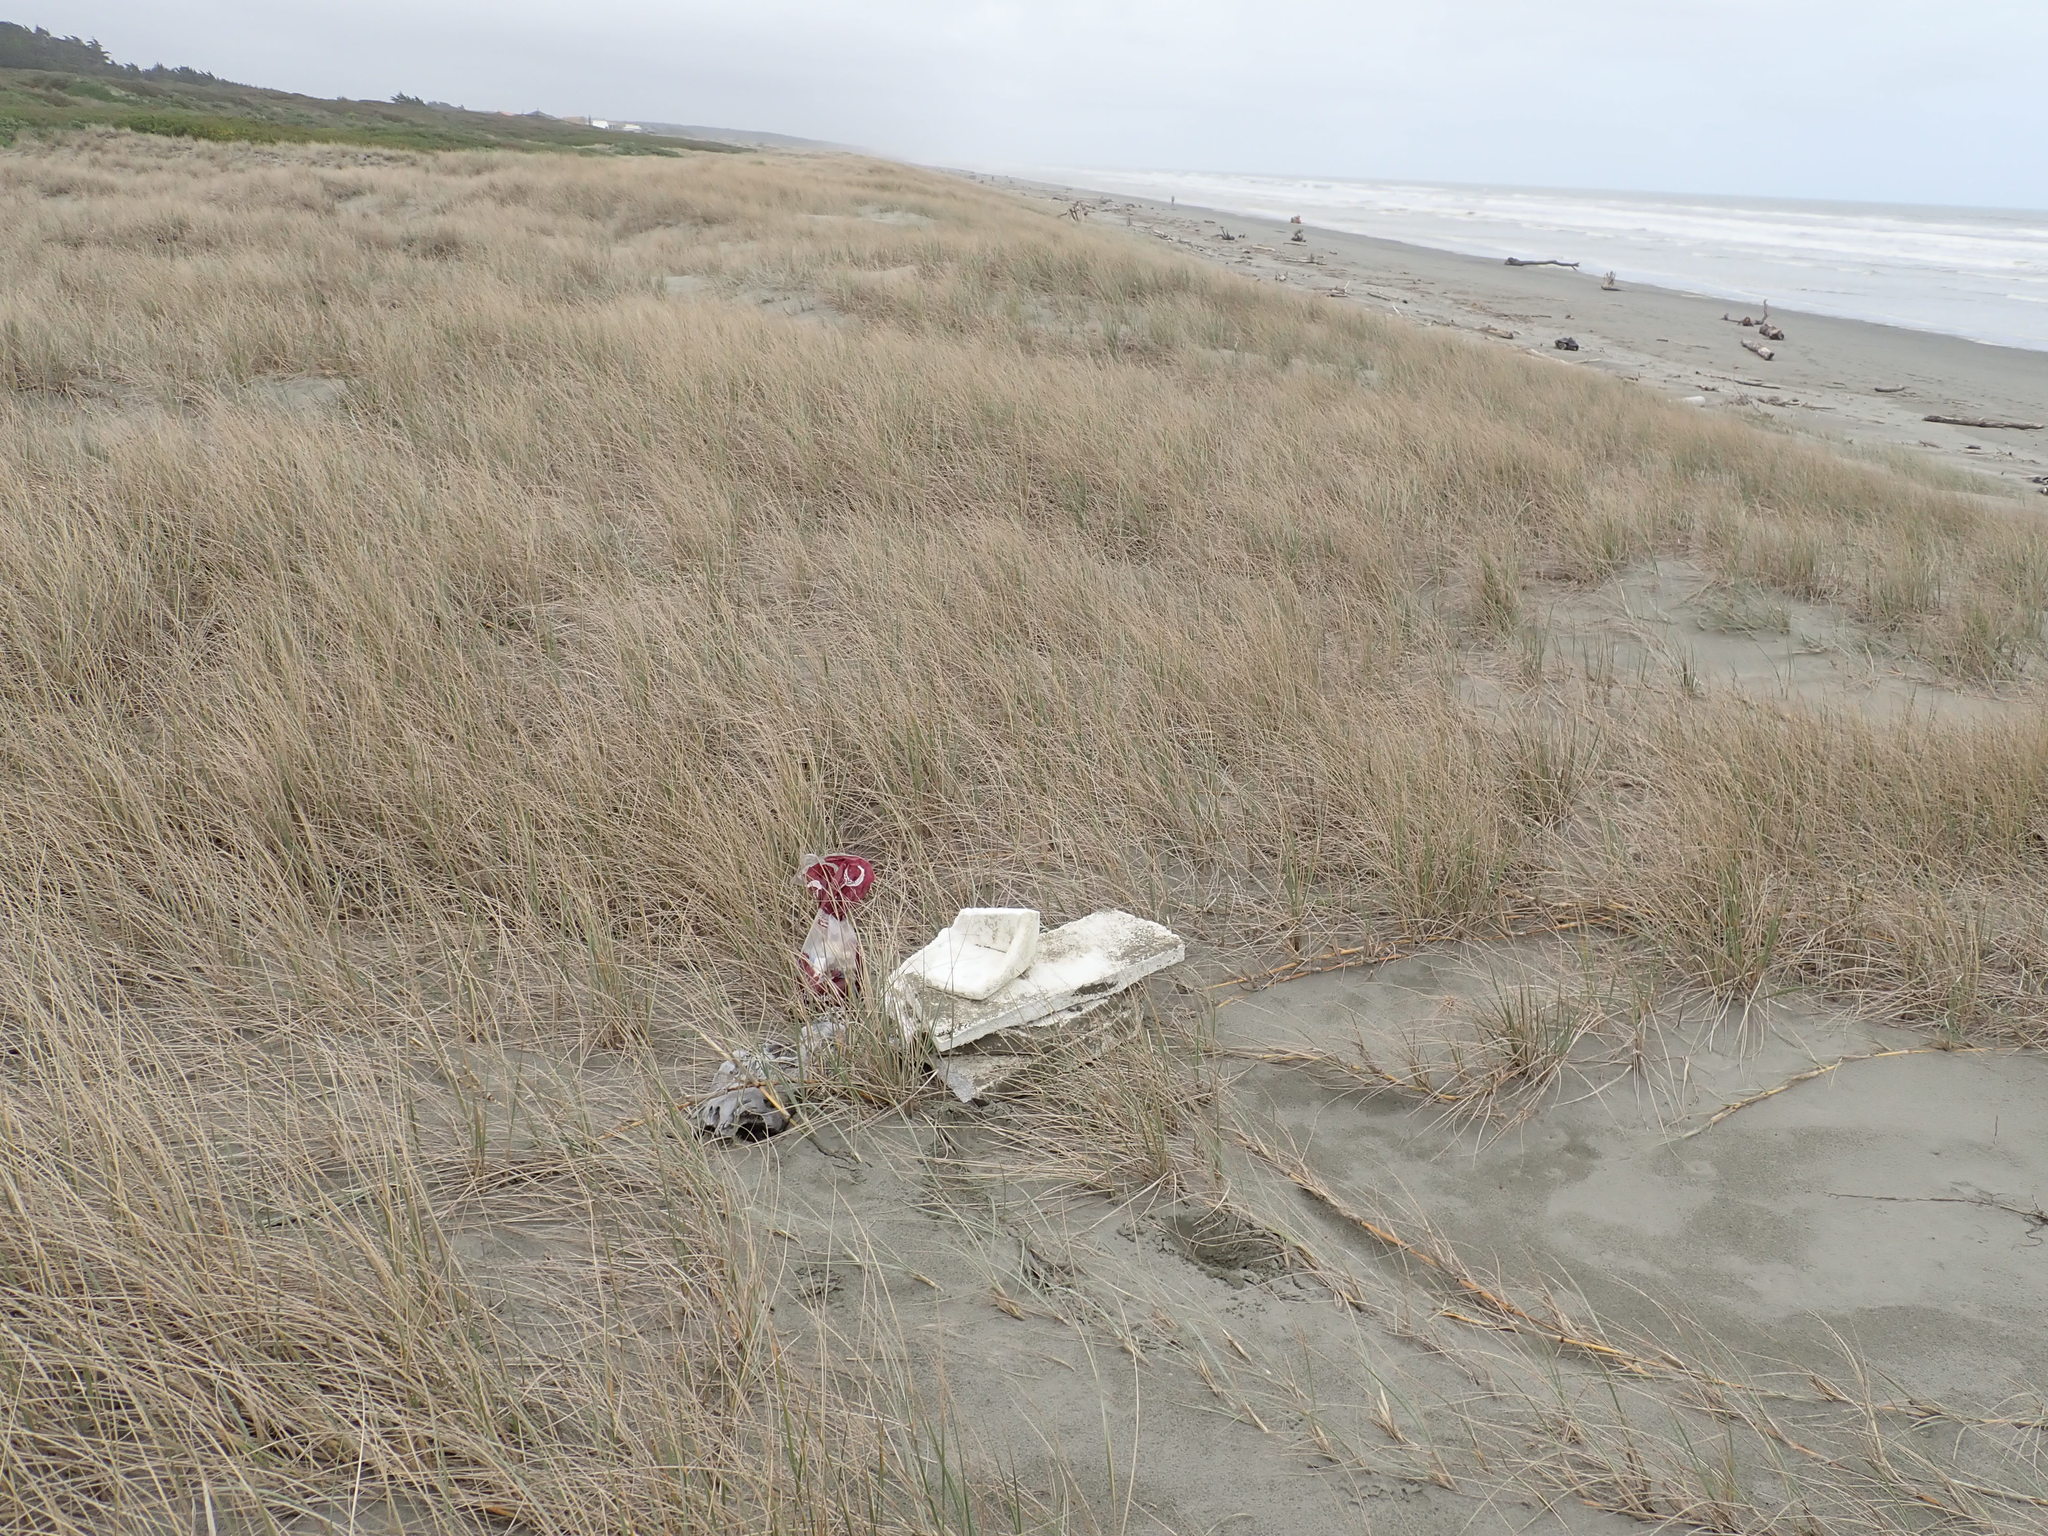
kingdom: Animalia
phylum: Arthropoda
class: Arachnida
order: Araneae
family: Theridiidae
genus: Latrodectus
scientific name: Latrodectus katipo
